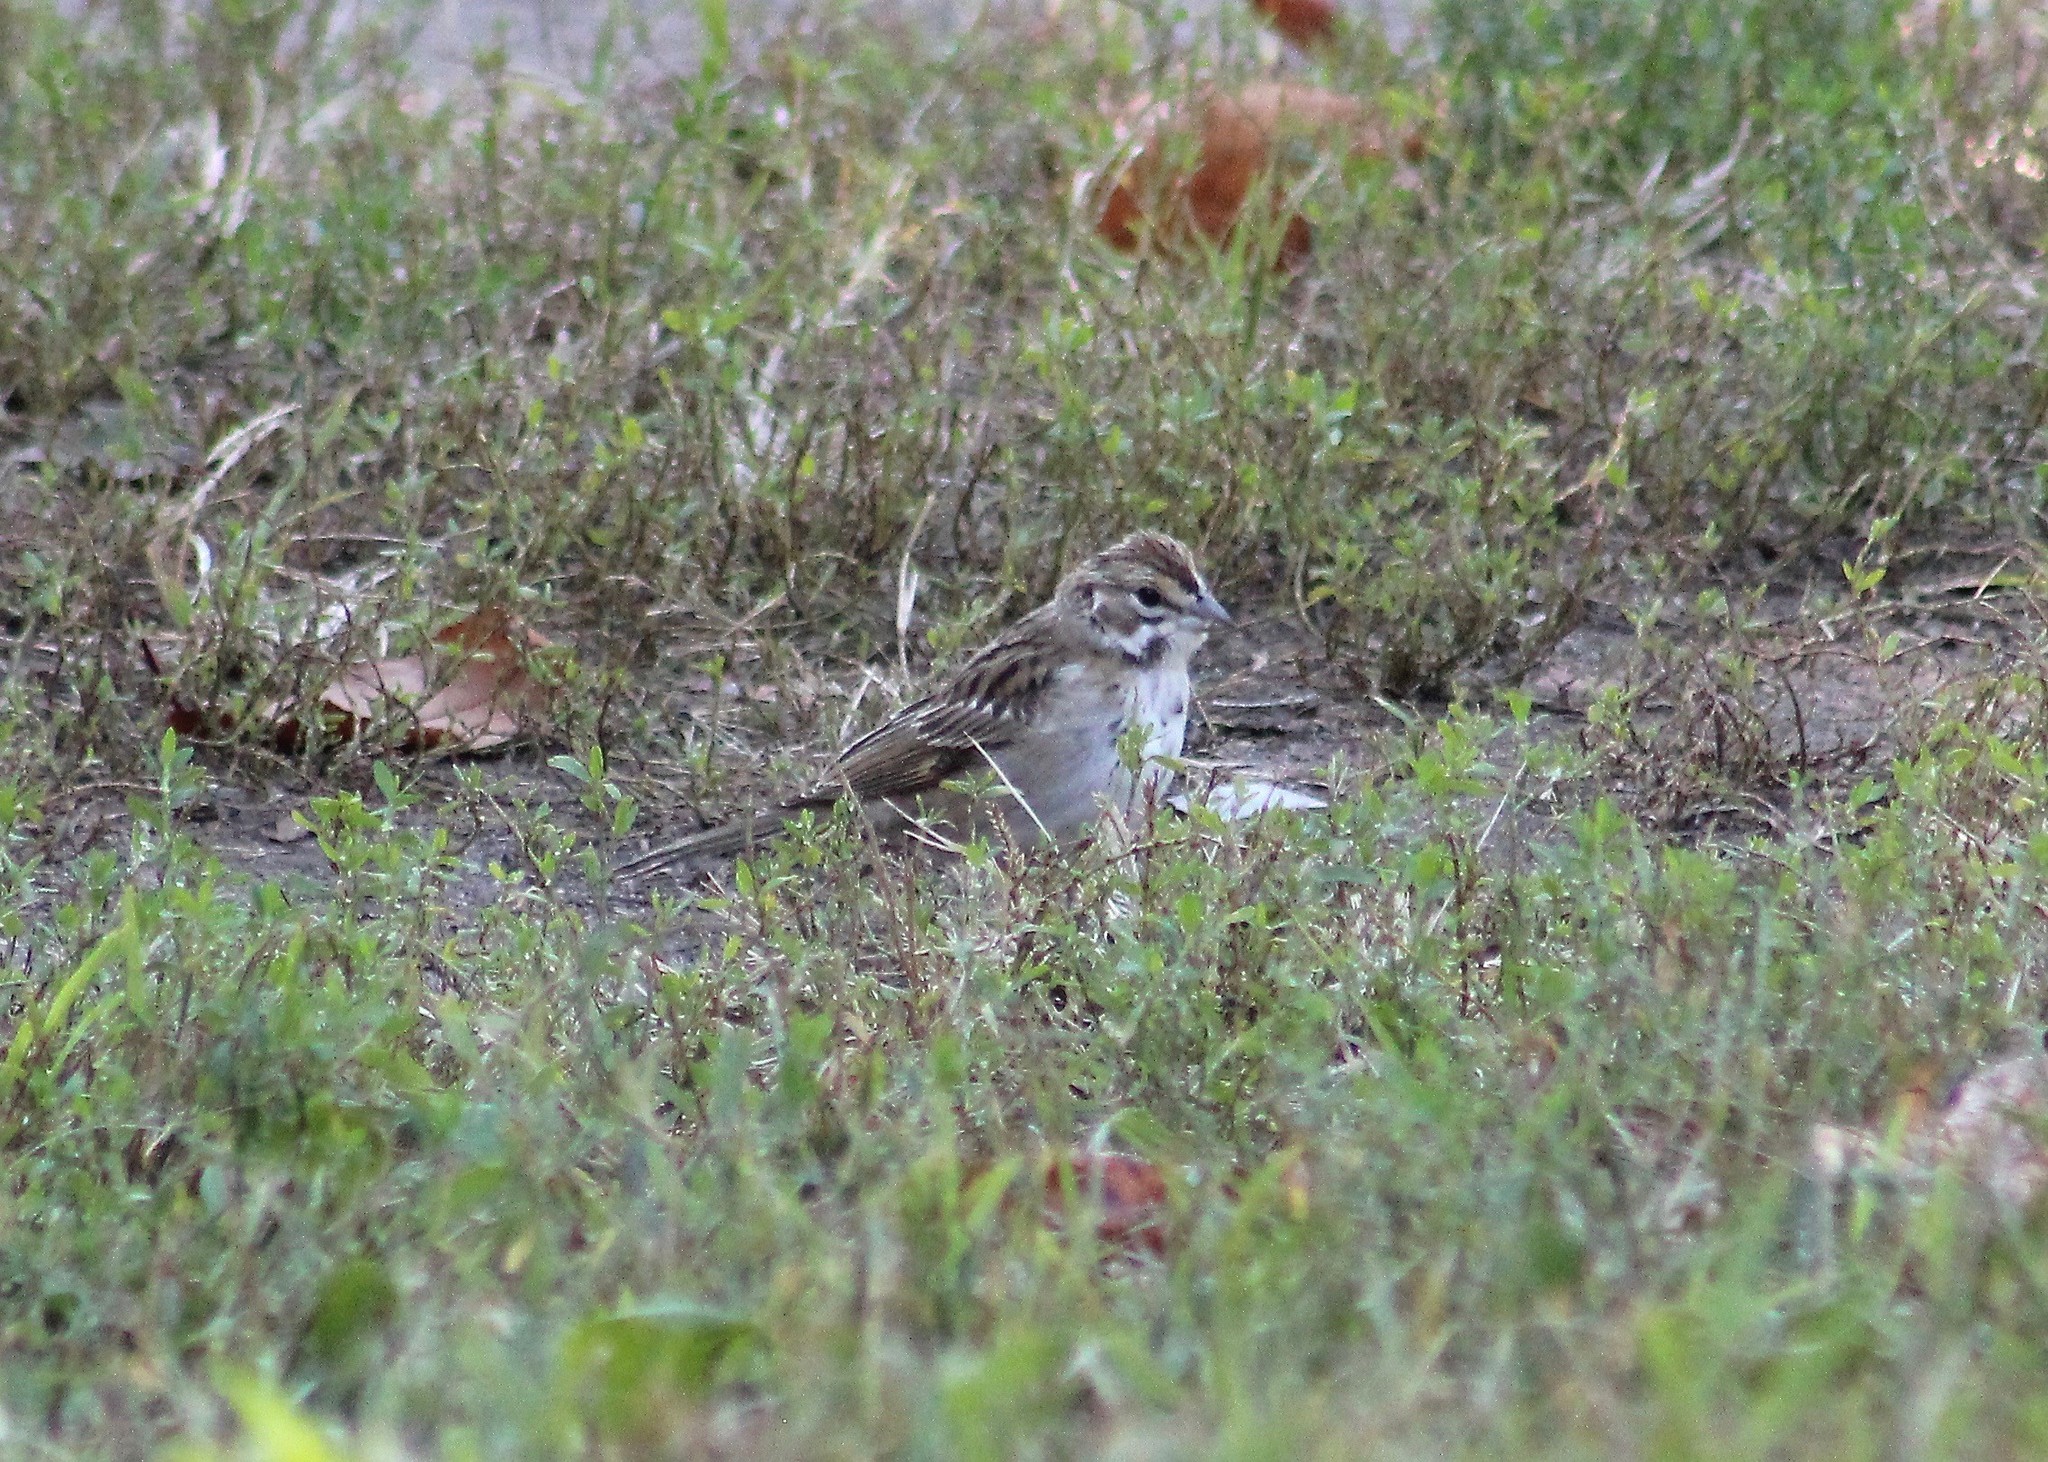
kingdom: Animalia
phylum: Chordata
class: Aves
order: Passeriformes
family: Passerellidae
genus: Chondestes
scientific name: Chondestes grammacus
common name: Lark sparrow
